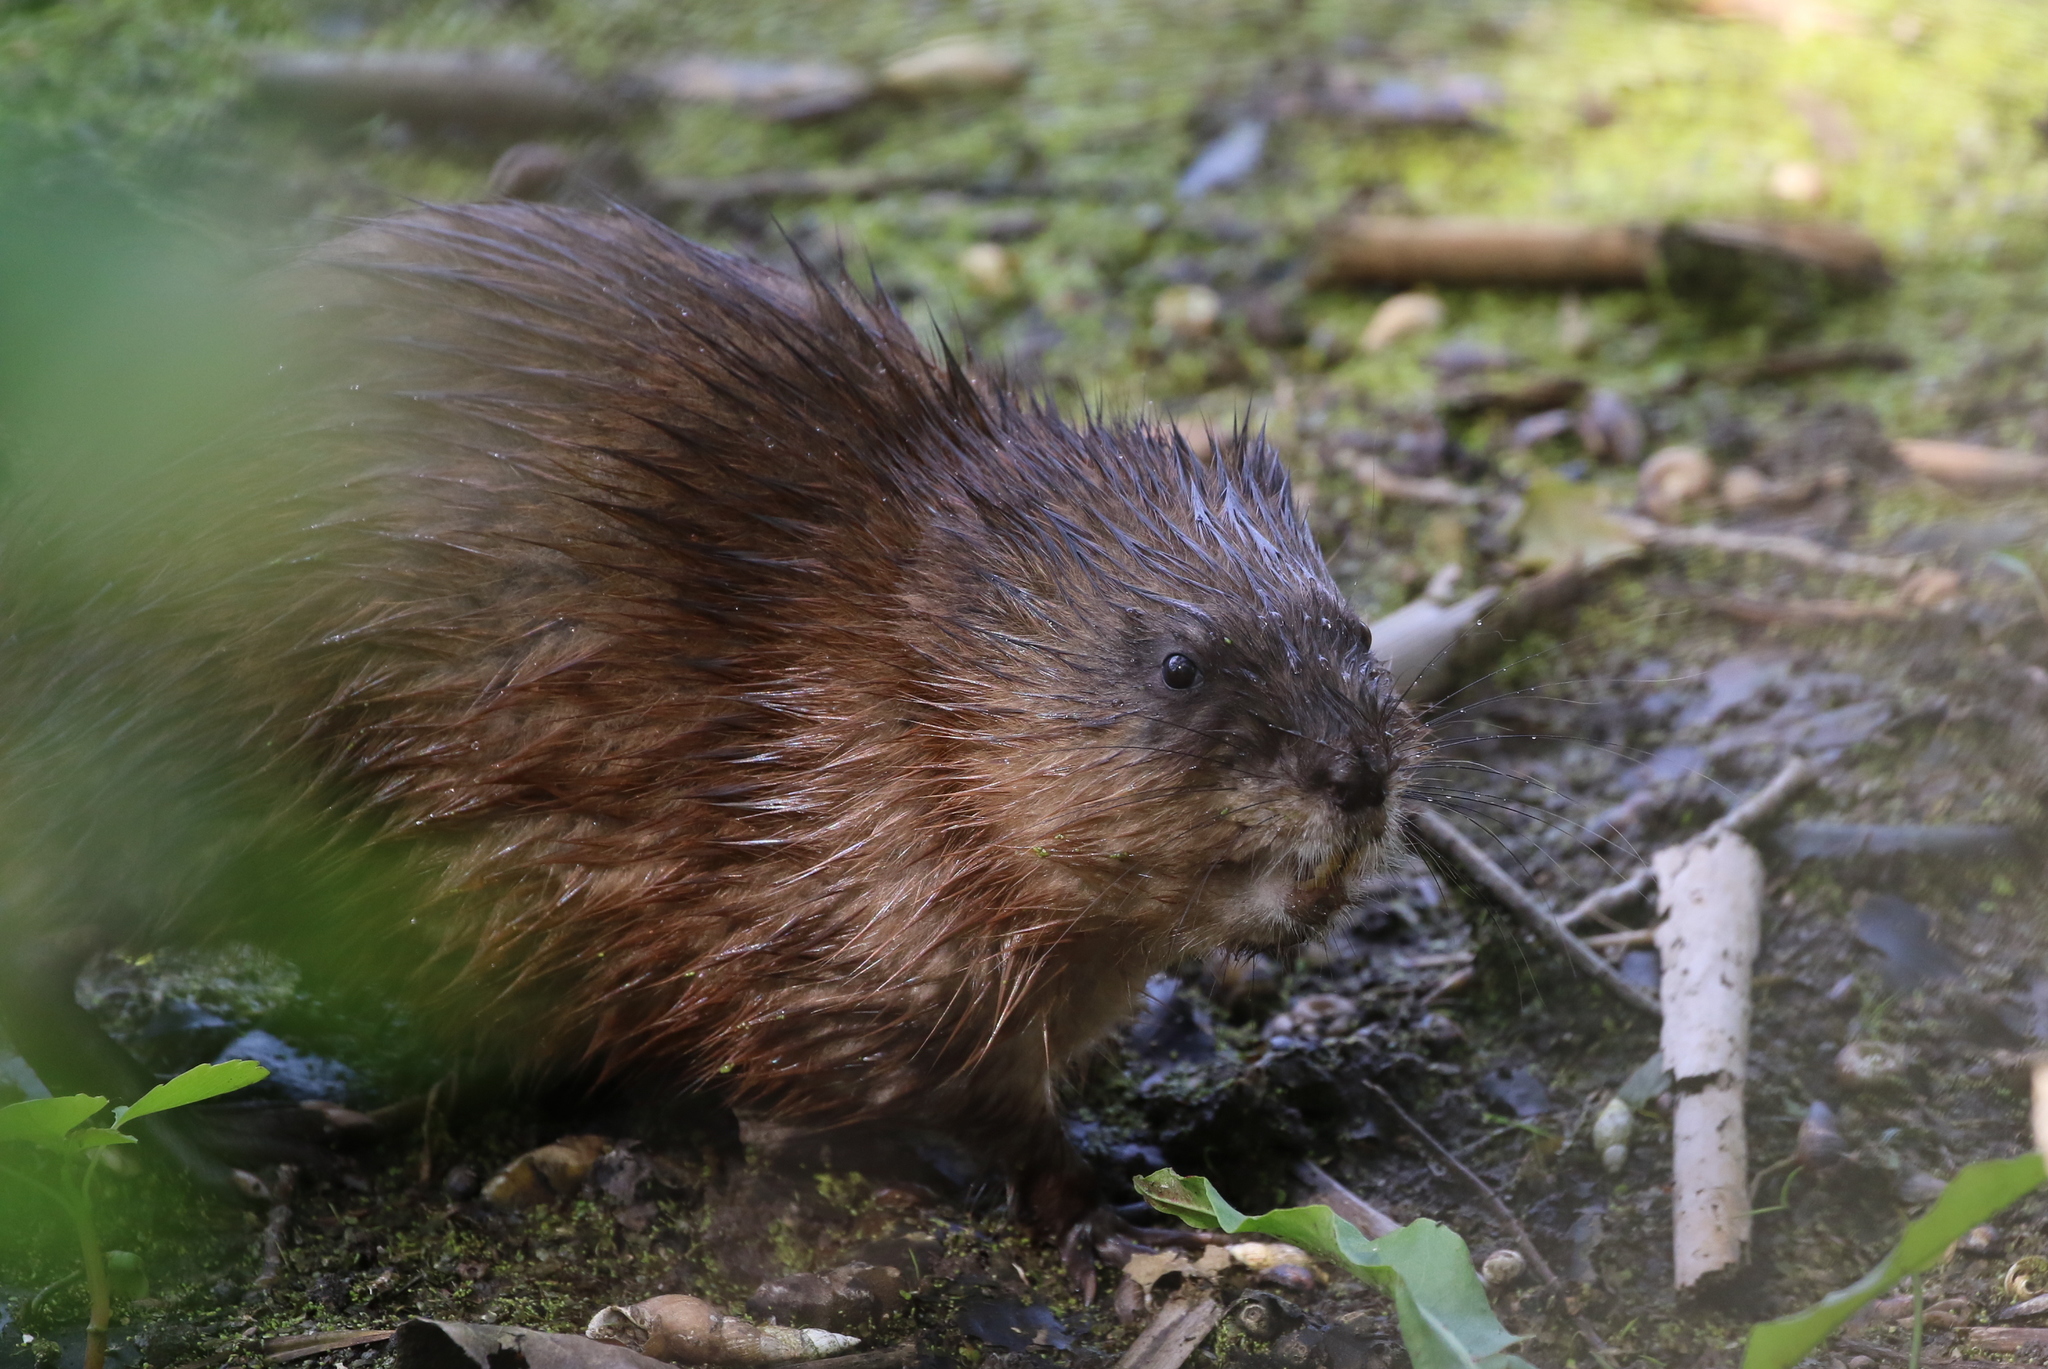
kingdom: Animalia
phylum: Chordata
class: Mammalia
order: Rodentia
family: Cricetidae
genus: Ondatra
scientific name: Ondatra zibethicus
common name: Muskrat
